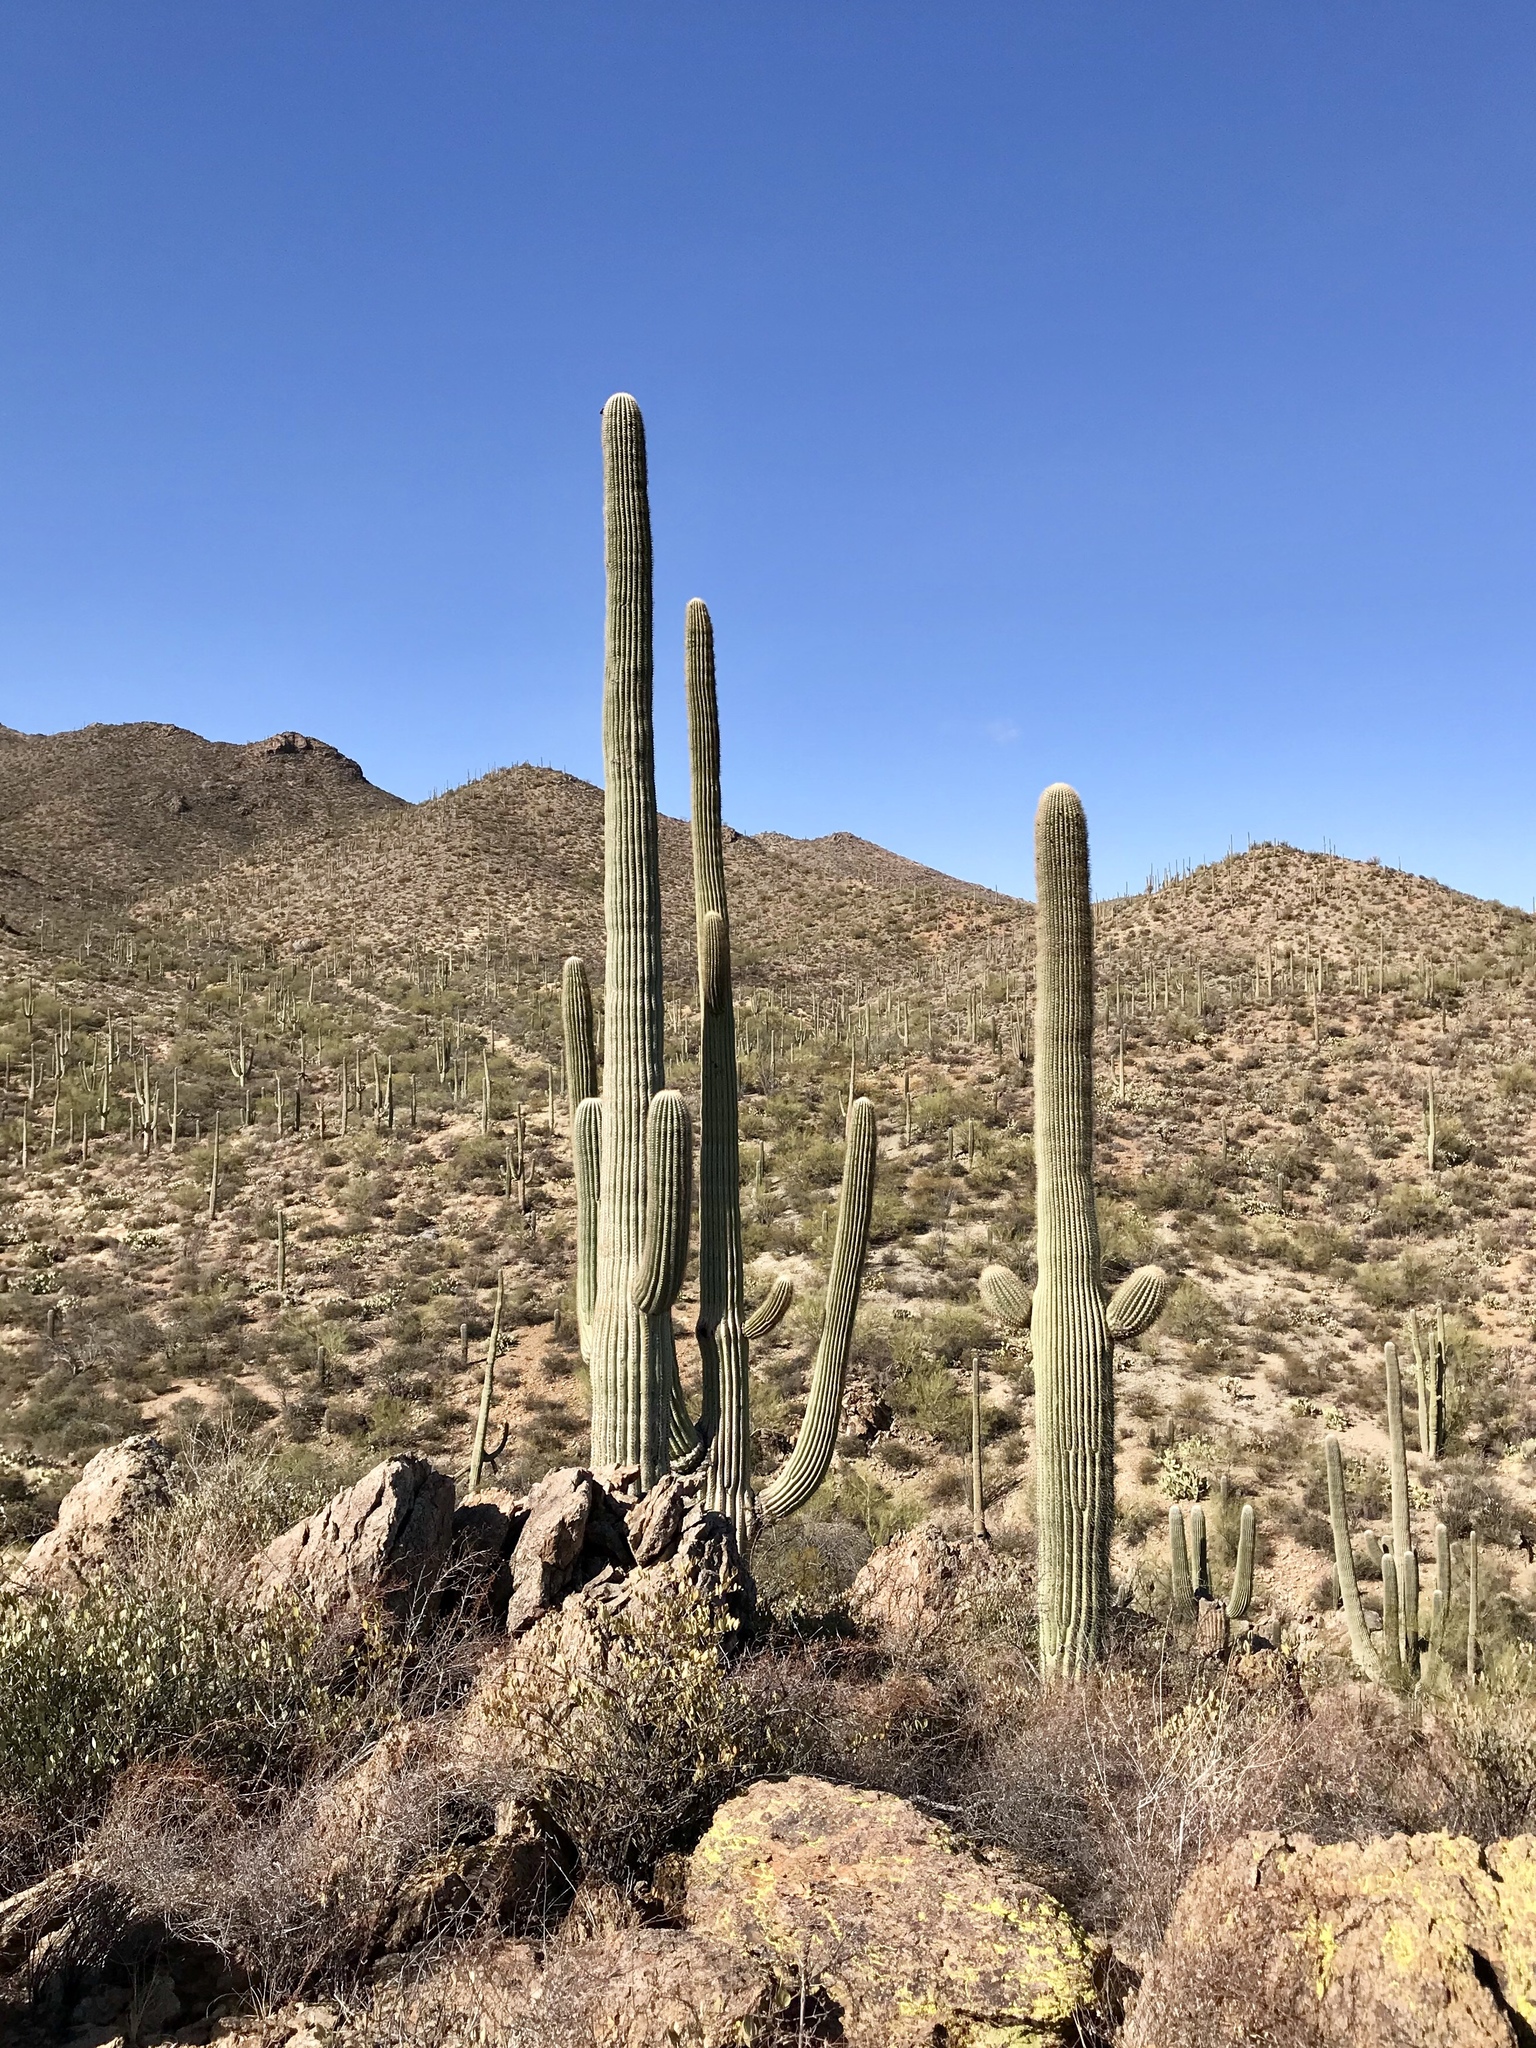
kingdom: Plantae
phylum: Tracheophyta
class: Magnoliopsida
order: Caryophyllales
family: Cactaceae
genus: Carnegiea
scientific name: Carnegiea gigantea
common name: Saguaro
